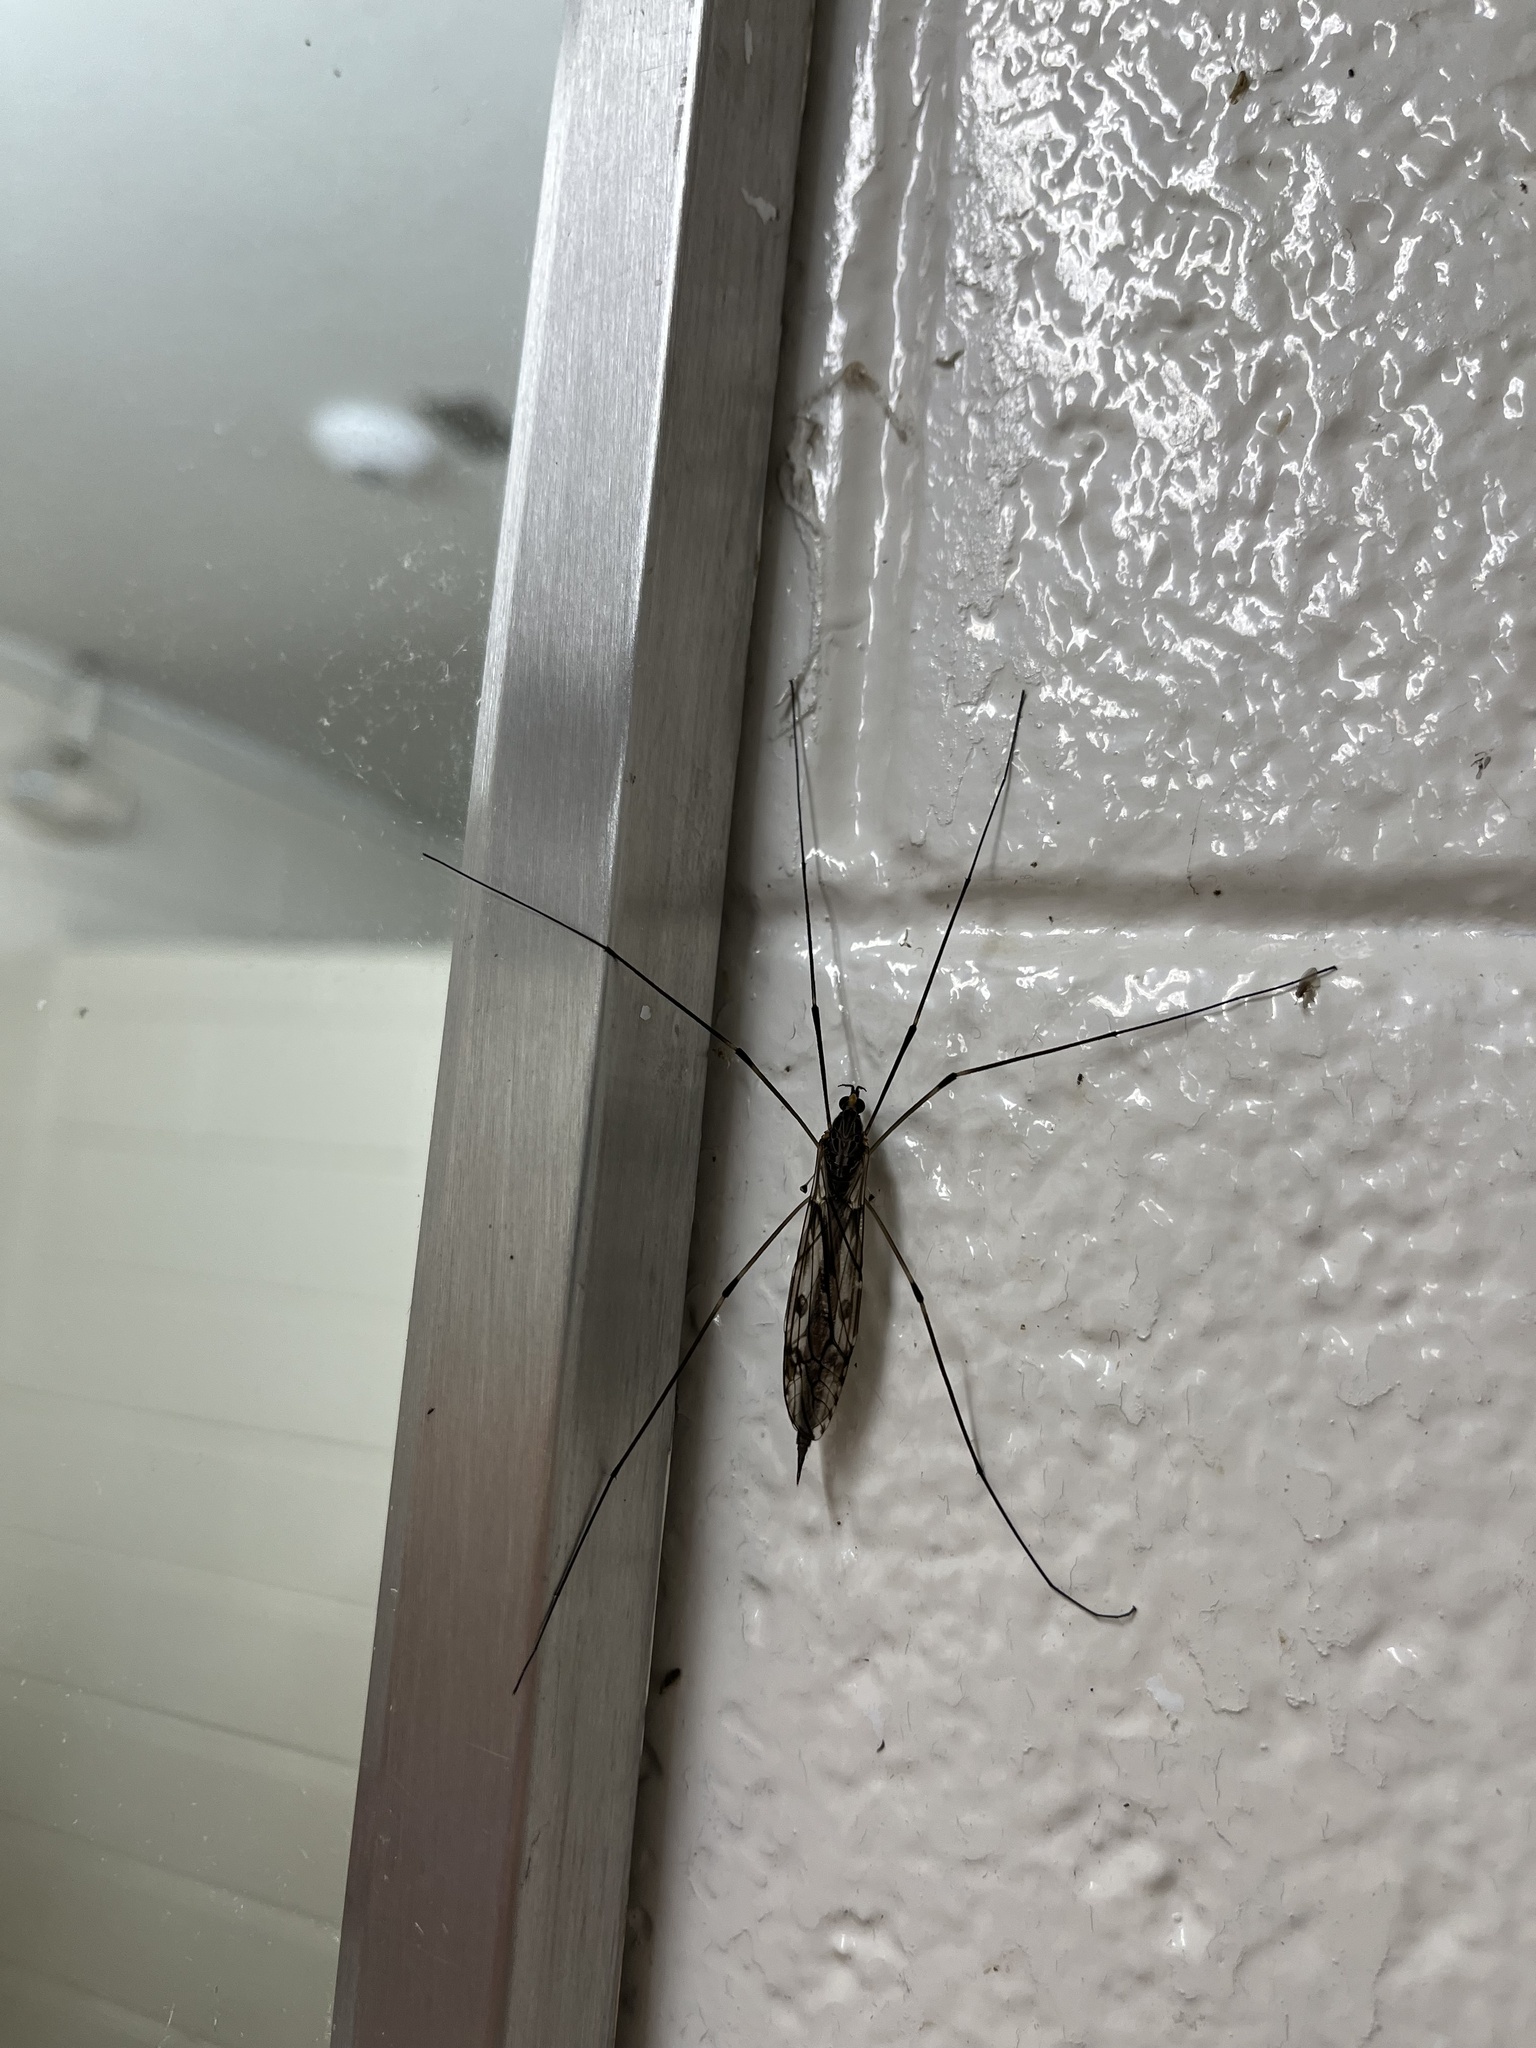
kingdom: Animalia
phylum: Arthropoda
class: Insecta
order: Diptera
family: Tipulidae
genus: Tipula
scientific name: Tipula abdominalis
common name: Giant crane fly
